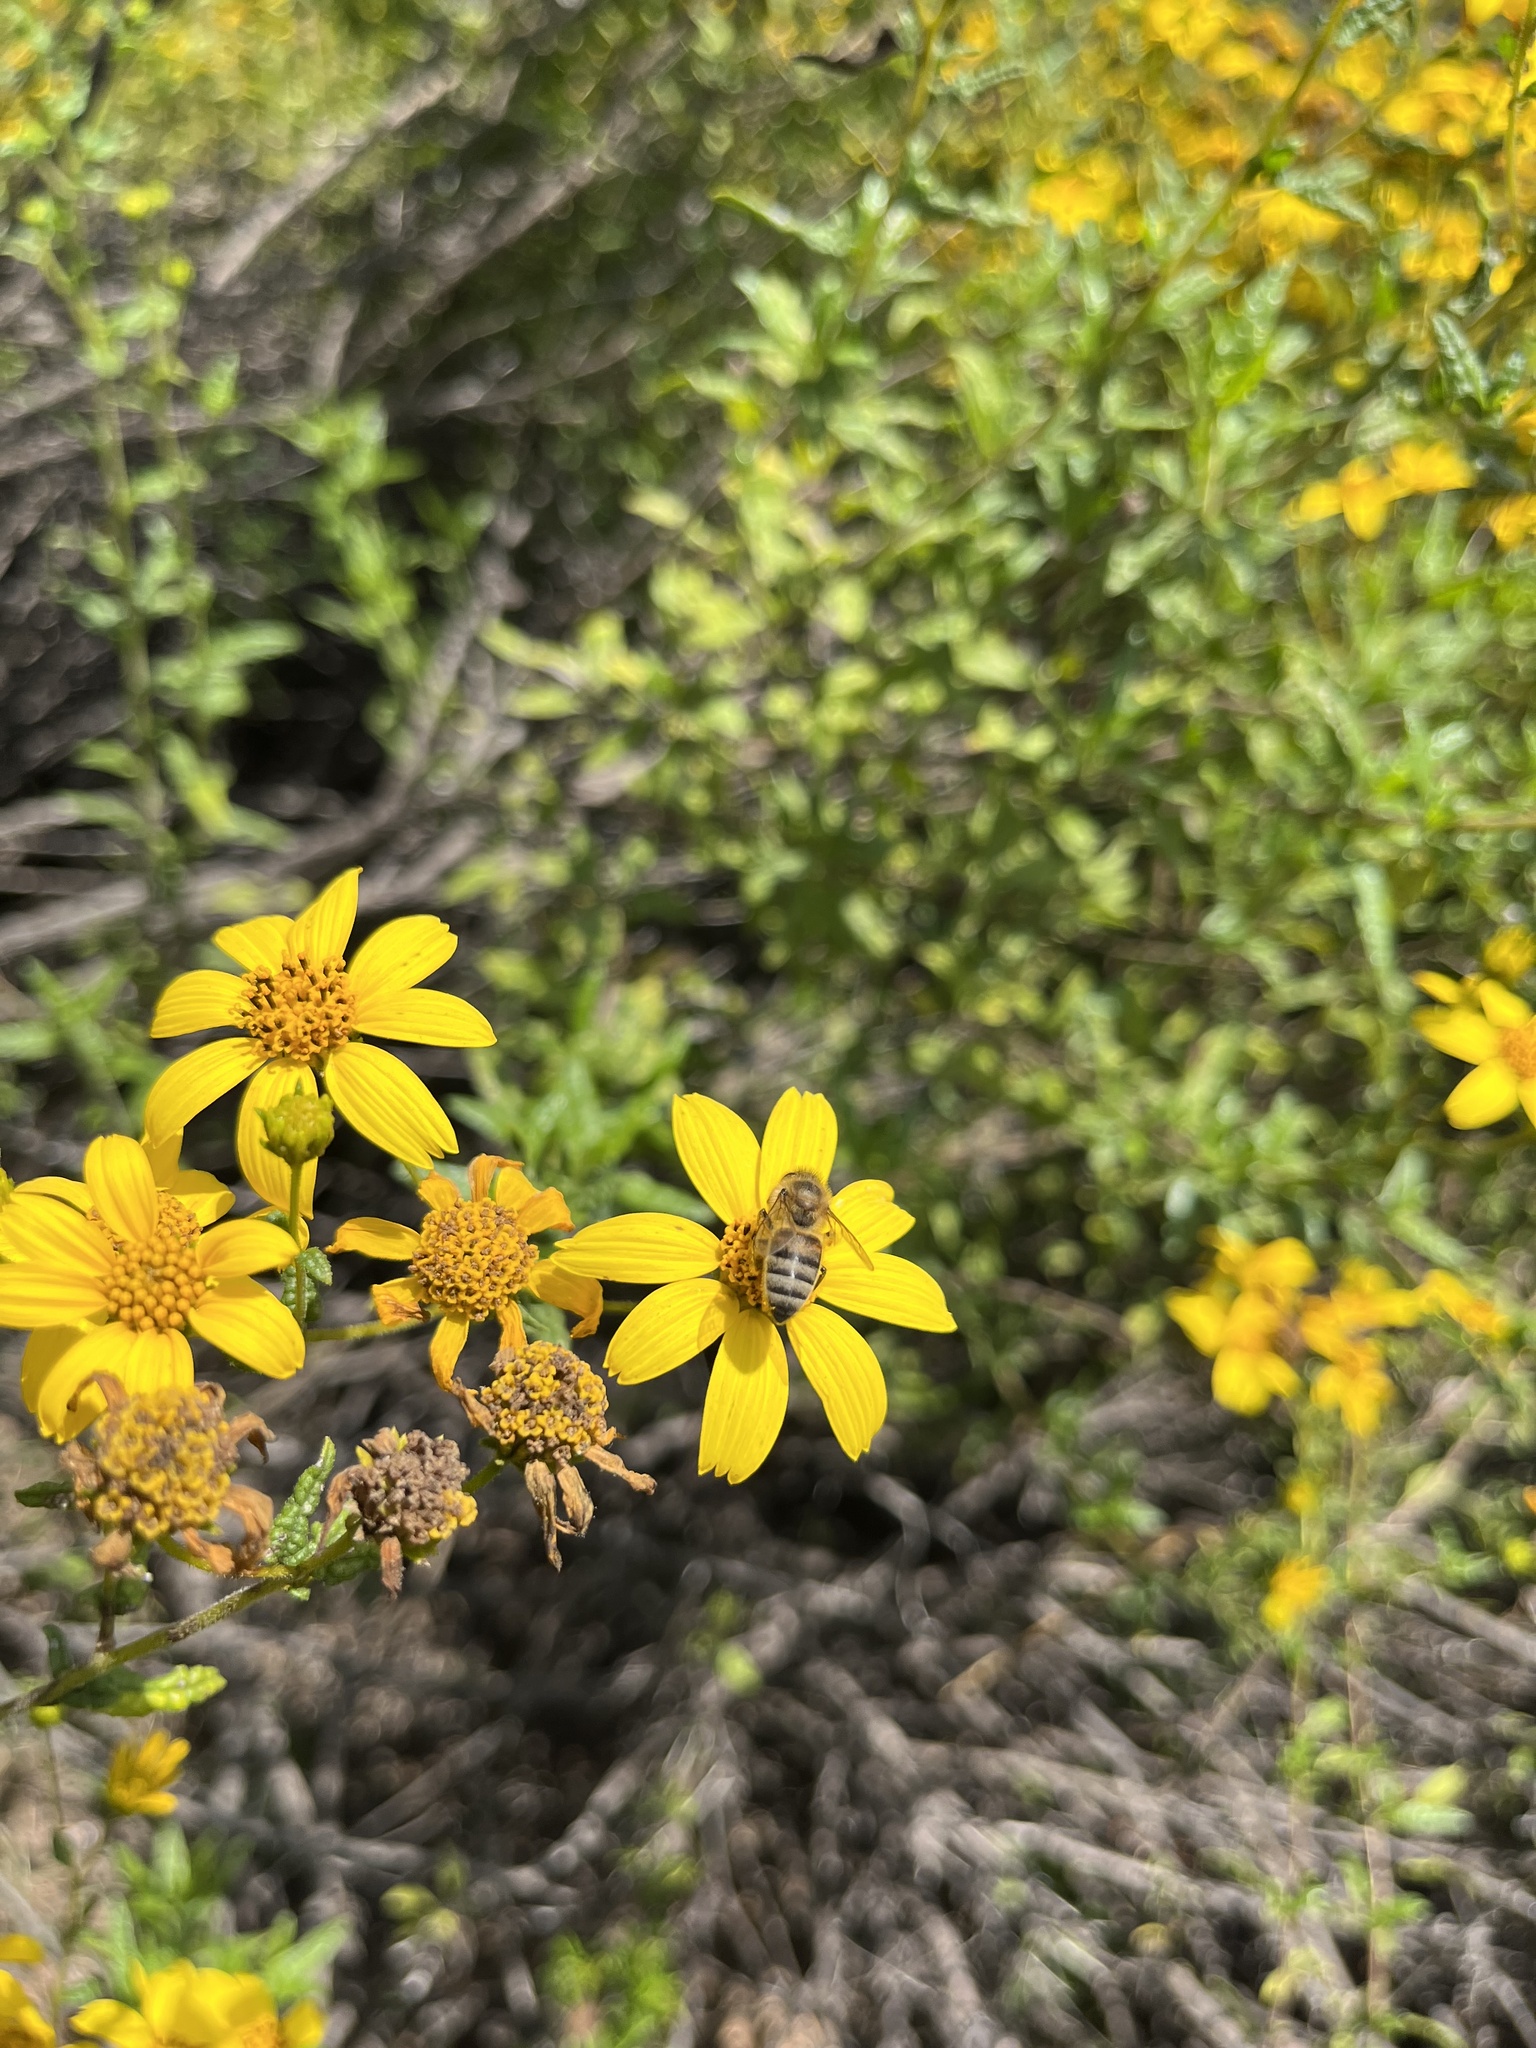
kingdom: Animalia
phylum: Arthropoda
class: Insecta
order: Hymenoptera
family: Apidae
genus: Apis
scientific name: Apis mellifera
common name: Honey bee
